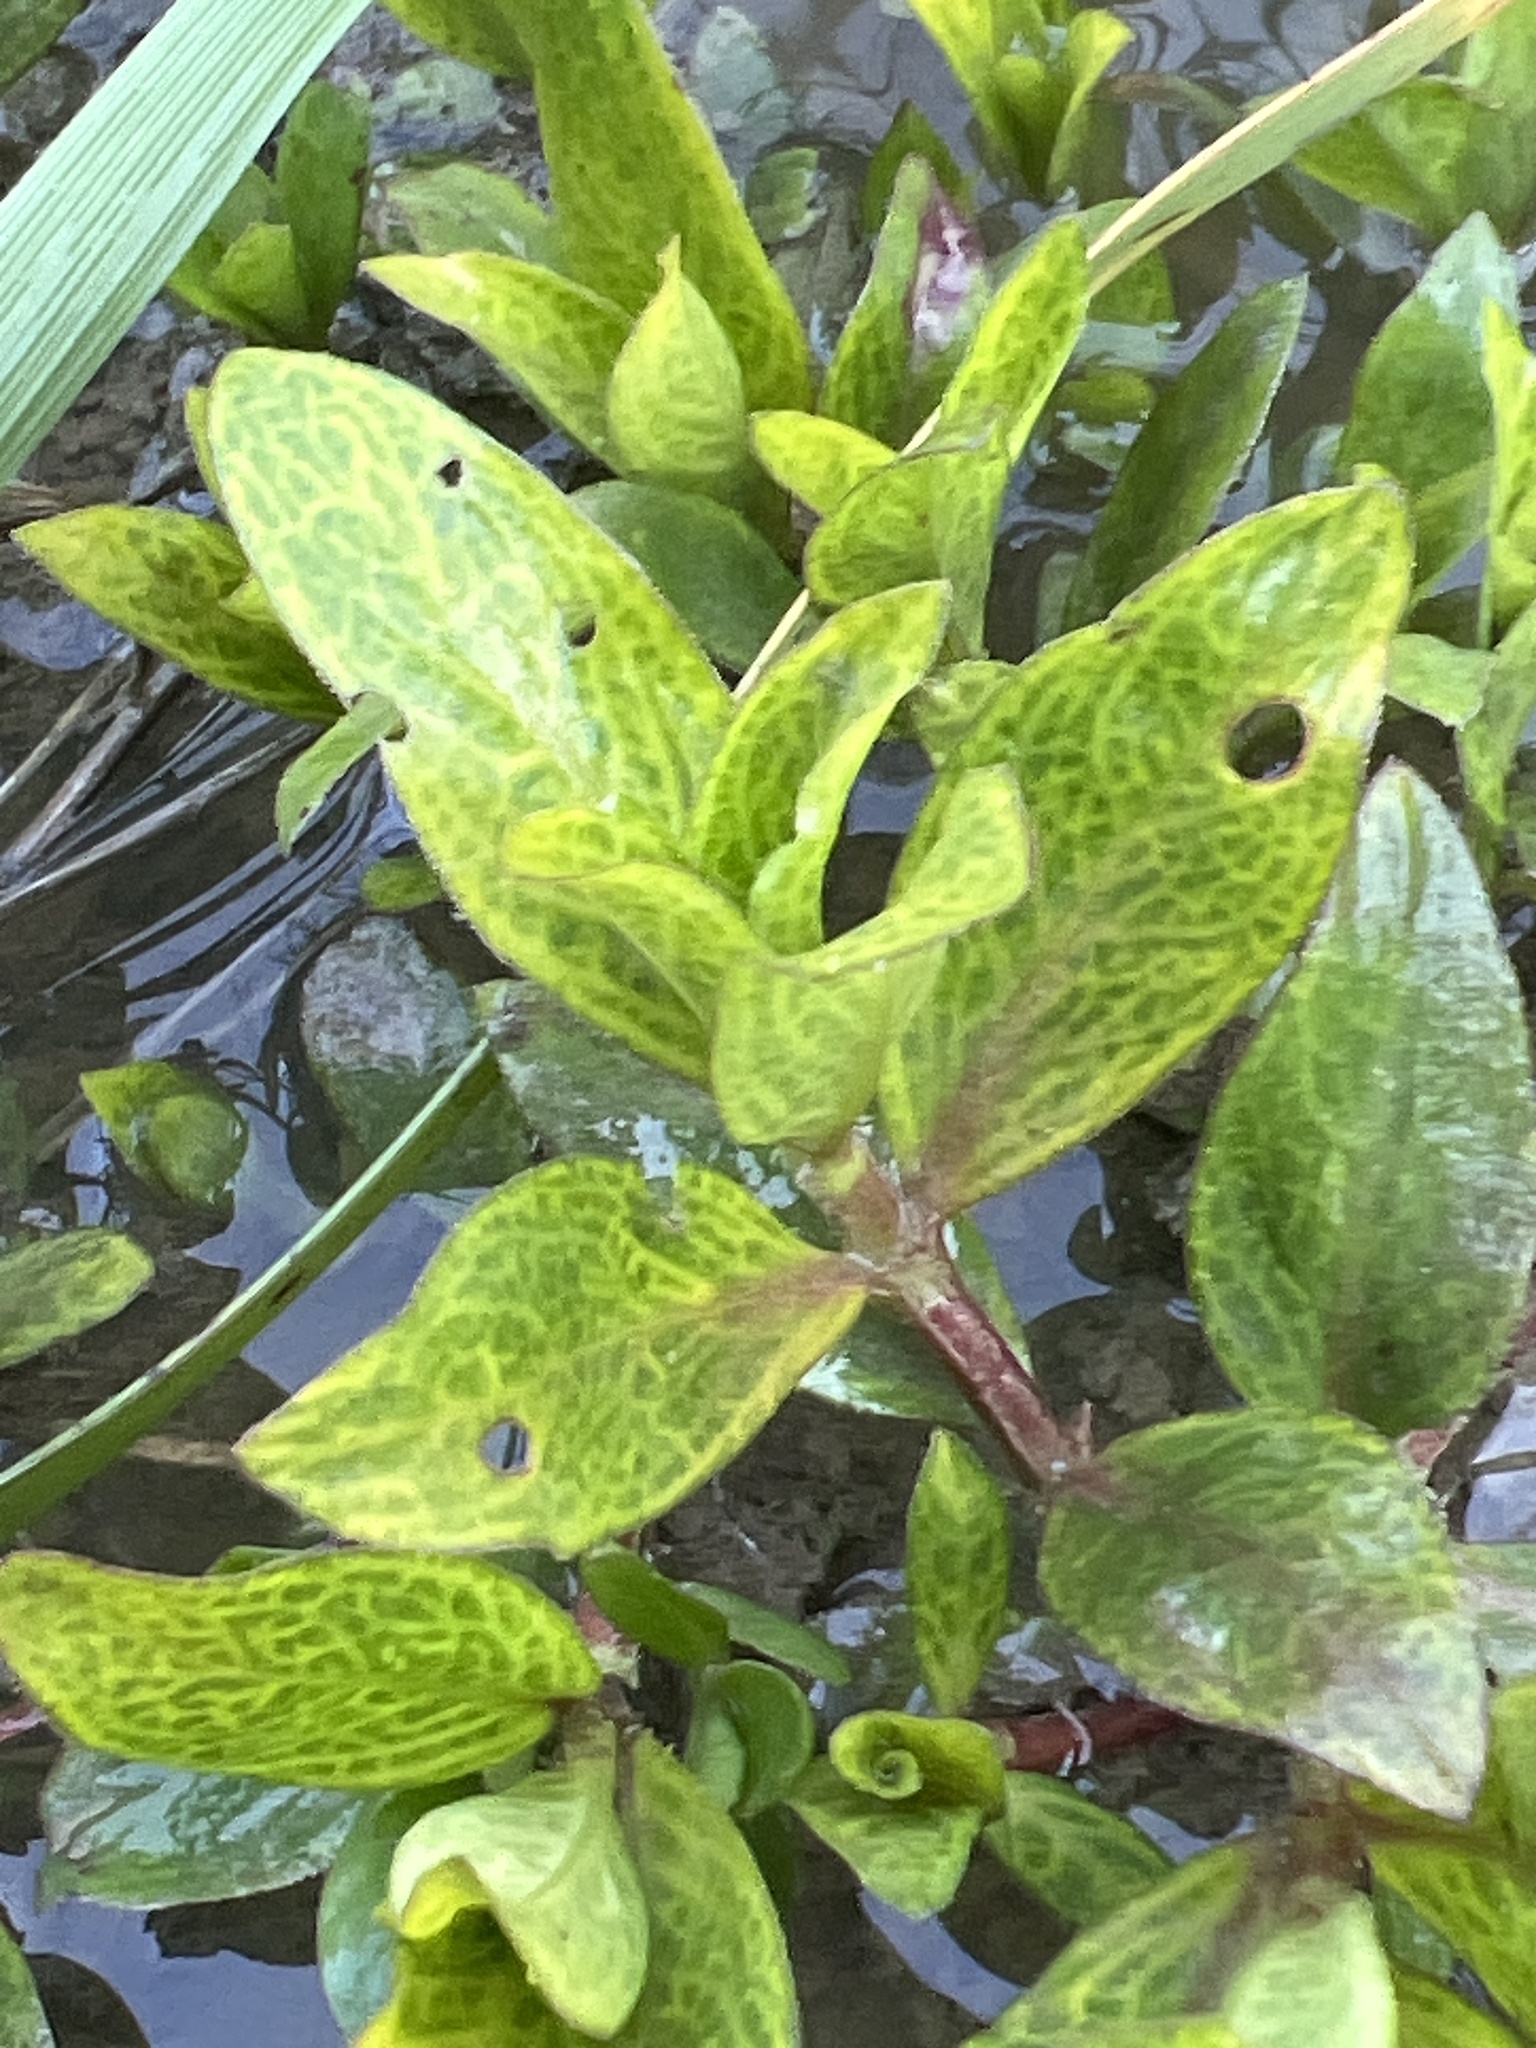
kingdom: Viruses
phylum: Kitrinoviricota
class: Alsuviricetes
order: Martellivirales
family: Closteroviridae
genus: Crinivirus
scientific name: Crinivirus Diodia vein chlorosis virus
